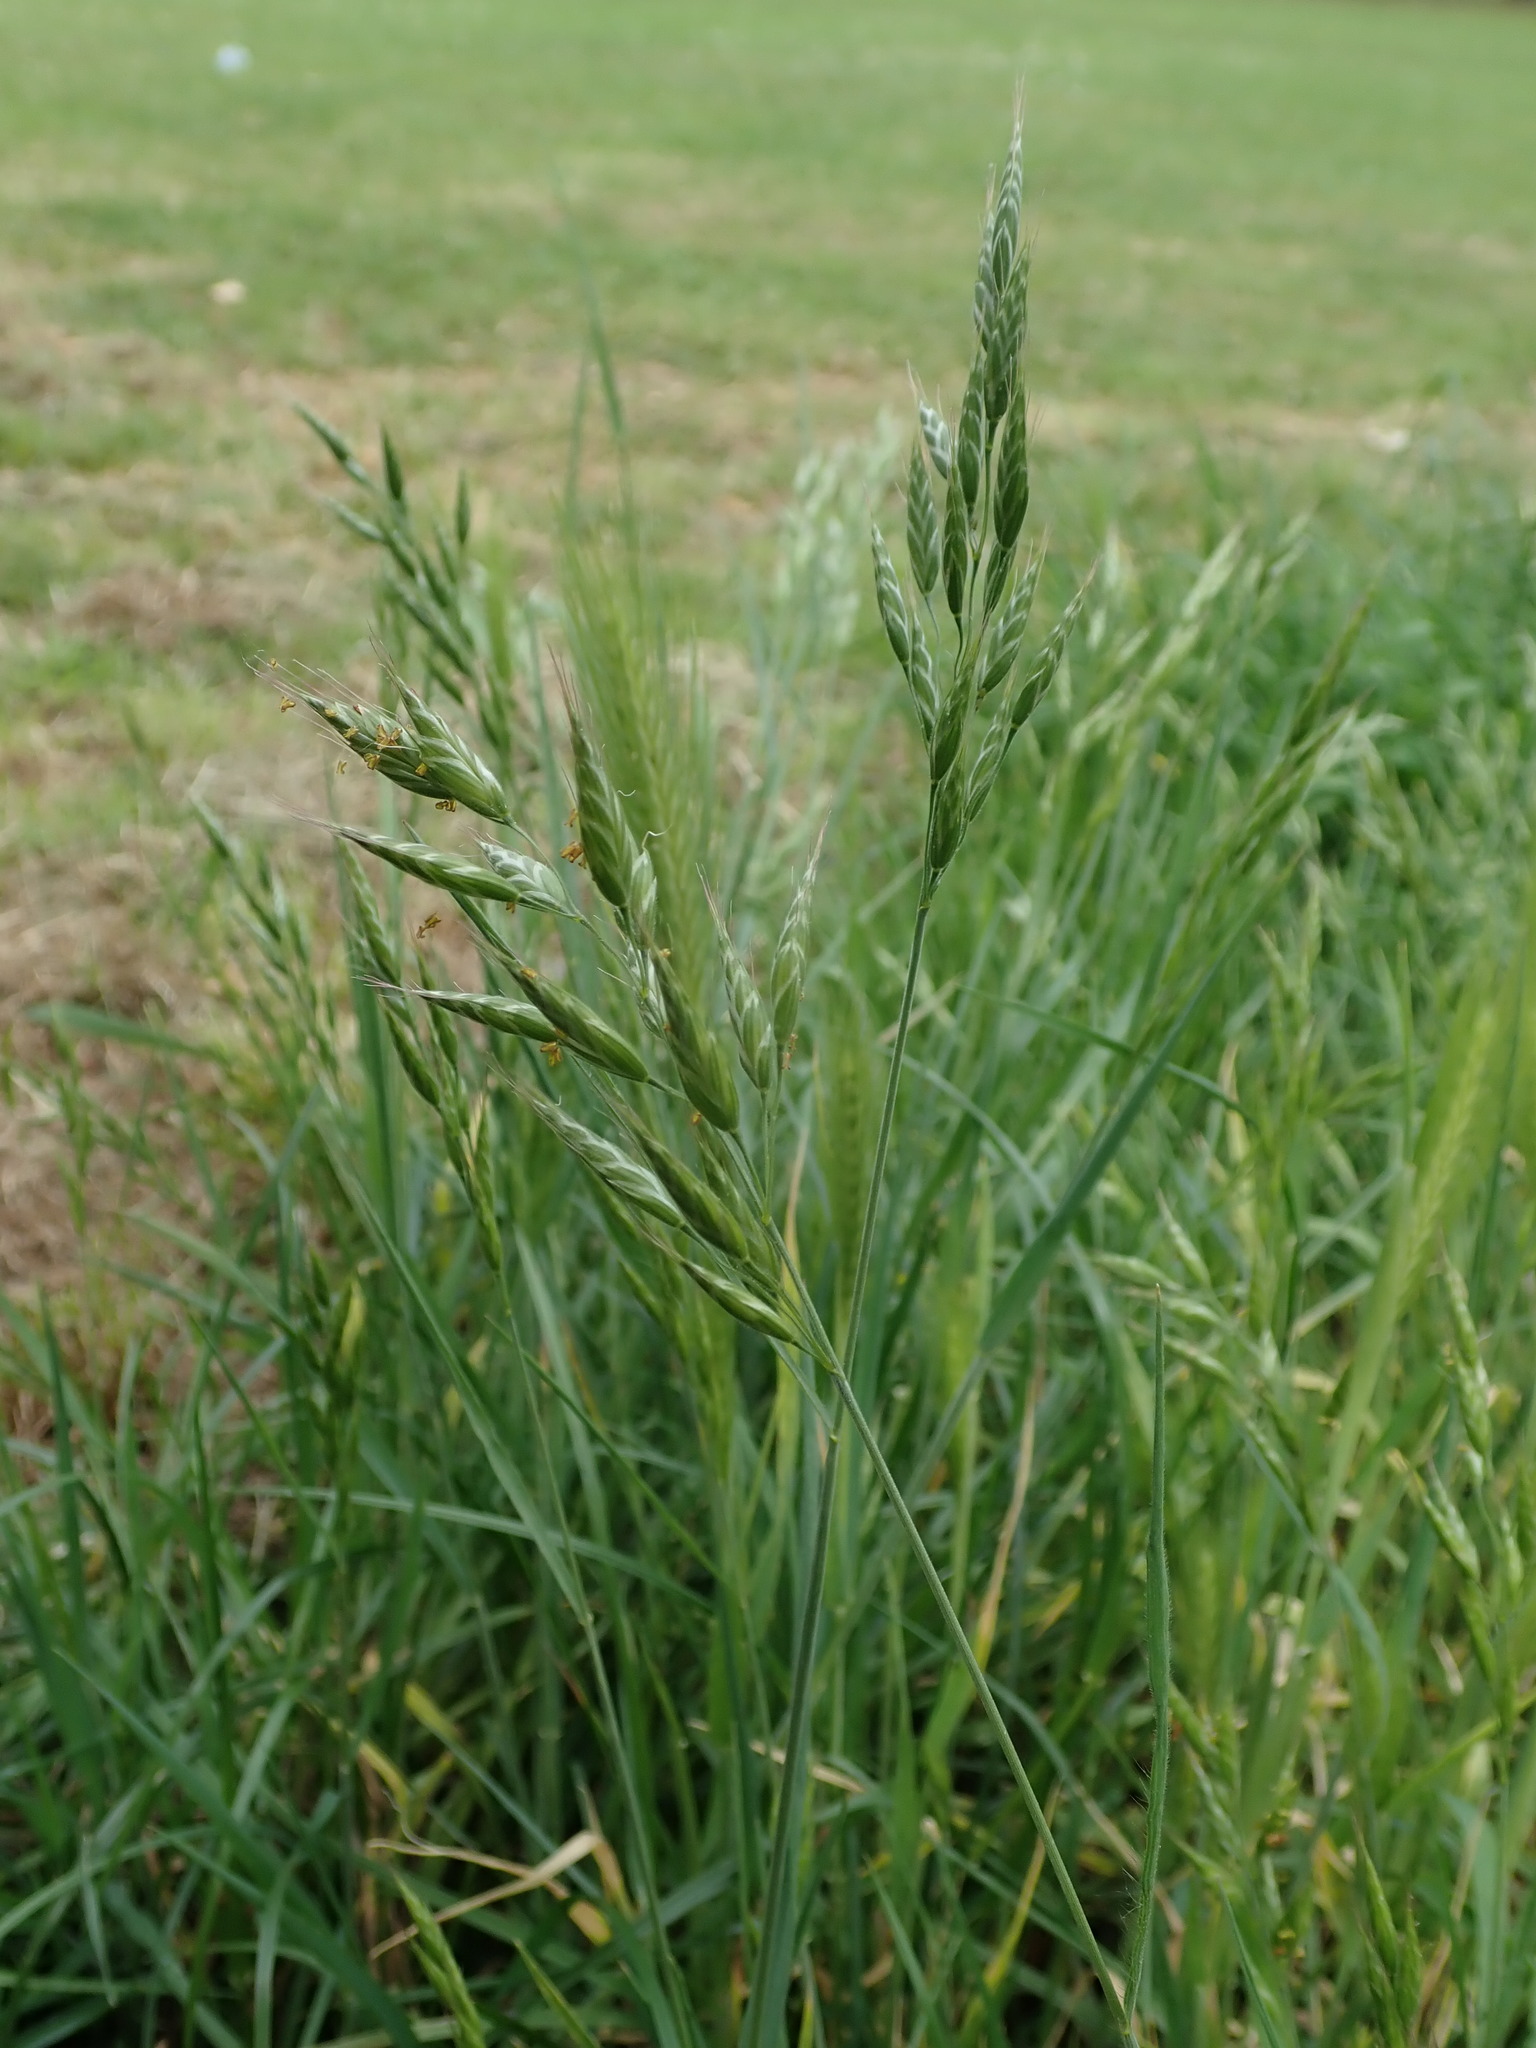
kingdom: Plantae
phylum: Tracheophyta
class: Liliopsida
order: Poales
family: Poaceae
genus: Bromus
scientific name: Bromus hordeaceus
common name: Soft brome
